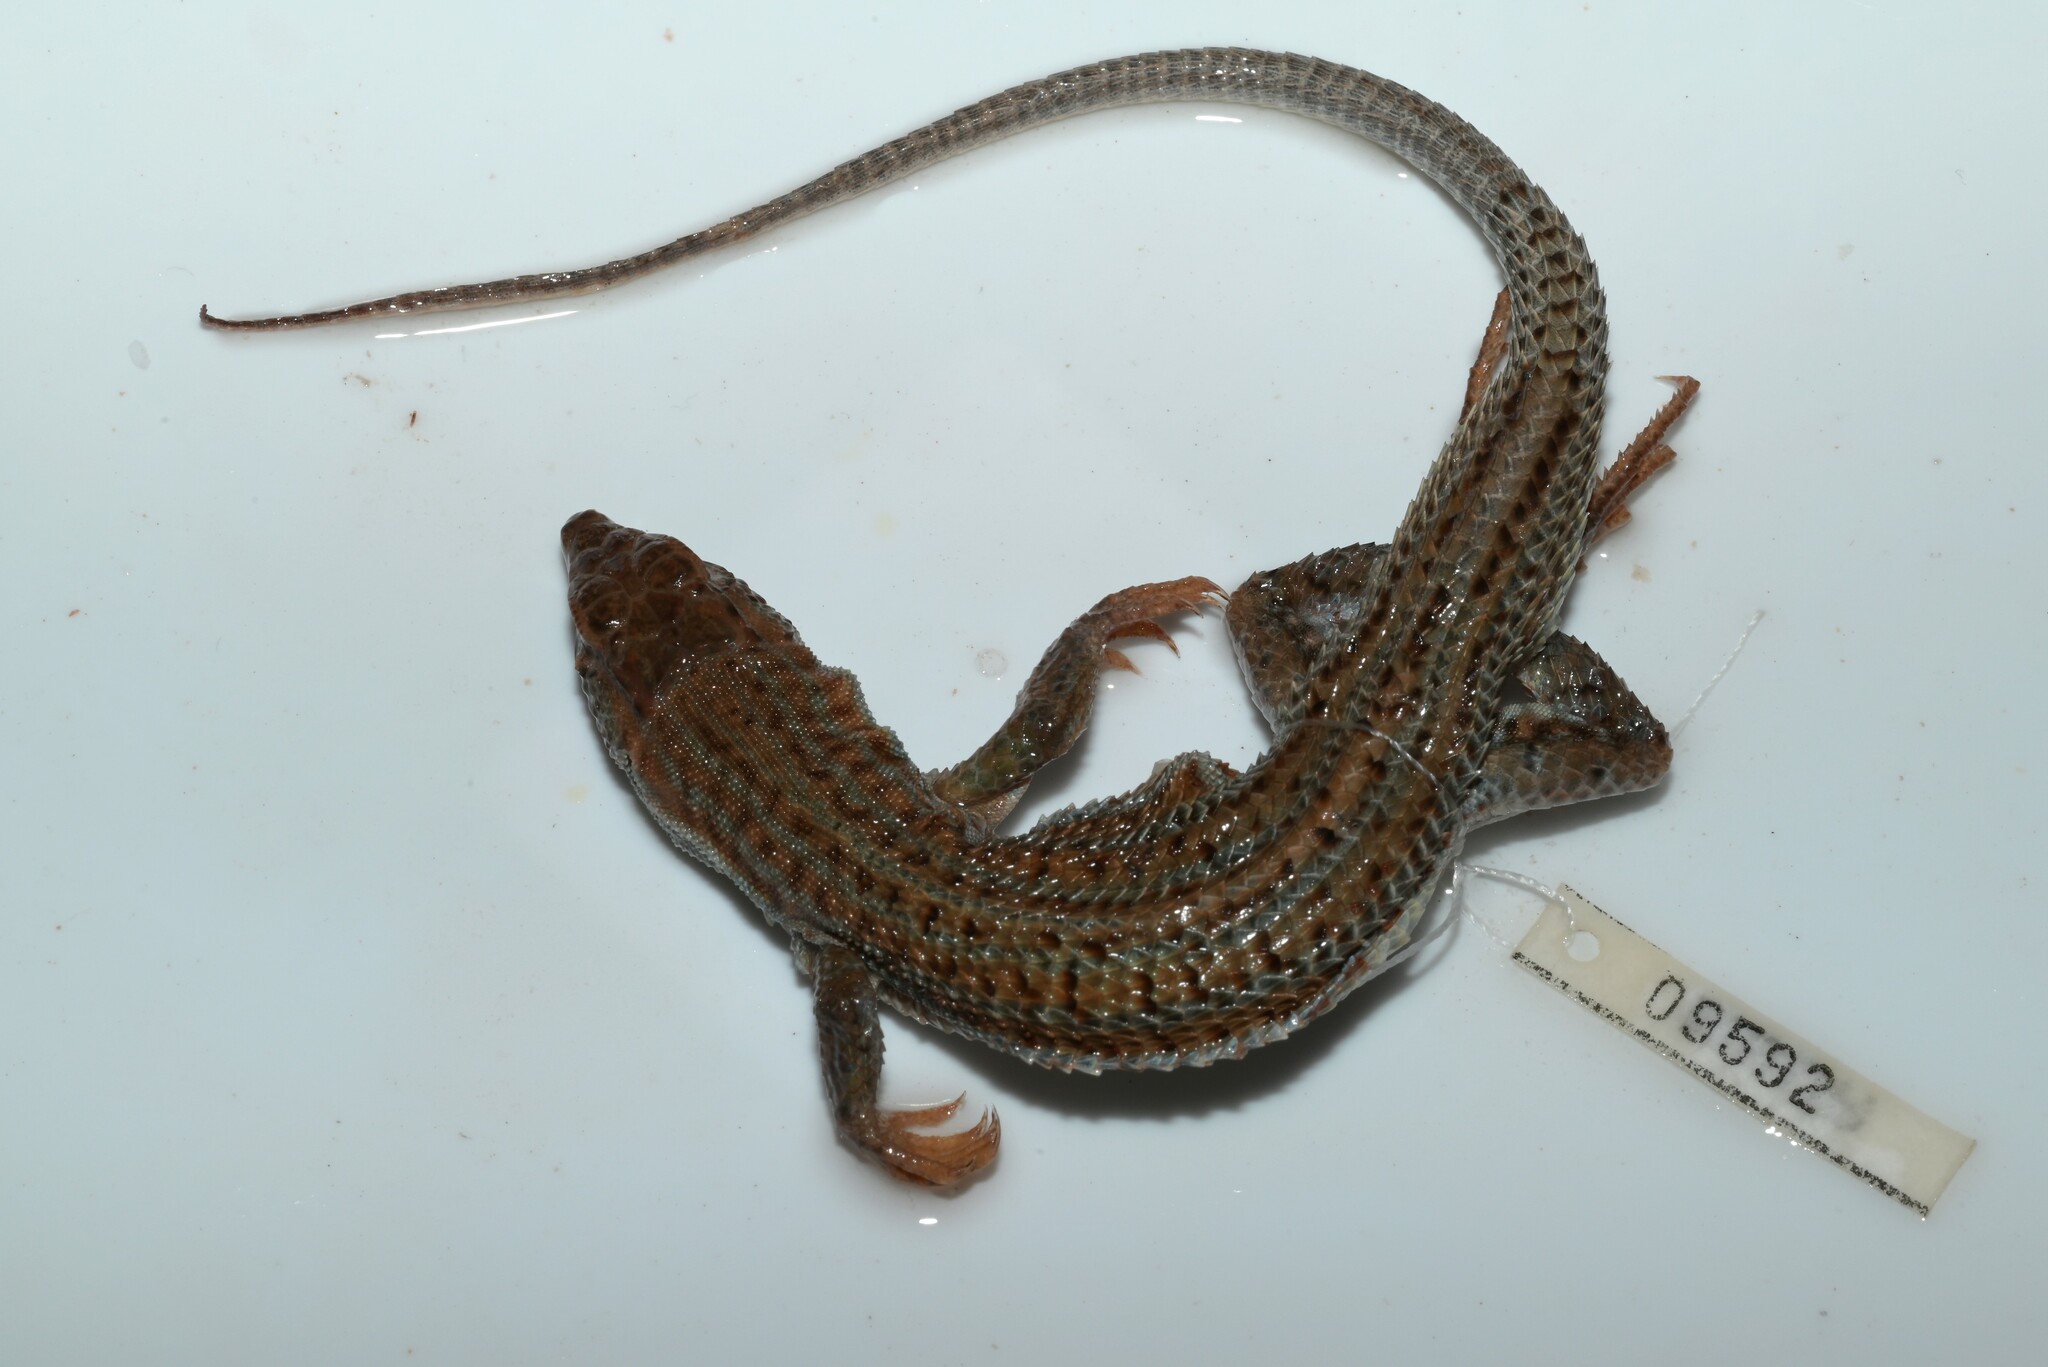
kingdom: Animalia
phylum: Chordata
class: Squamata
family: Lacertidae
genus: Acanthodactylus
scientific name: Acanthodactylus boskianus
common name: Bosc’s fringe-toed lizard
